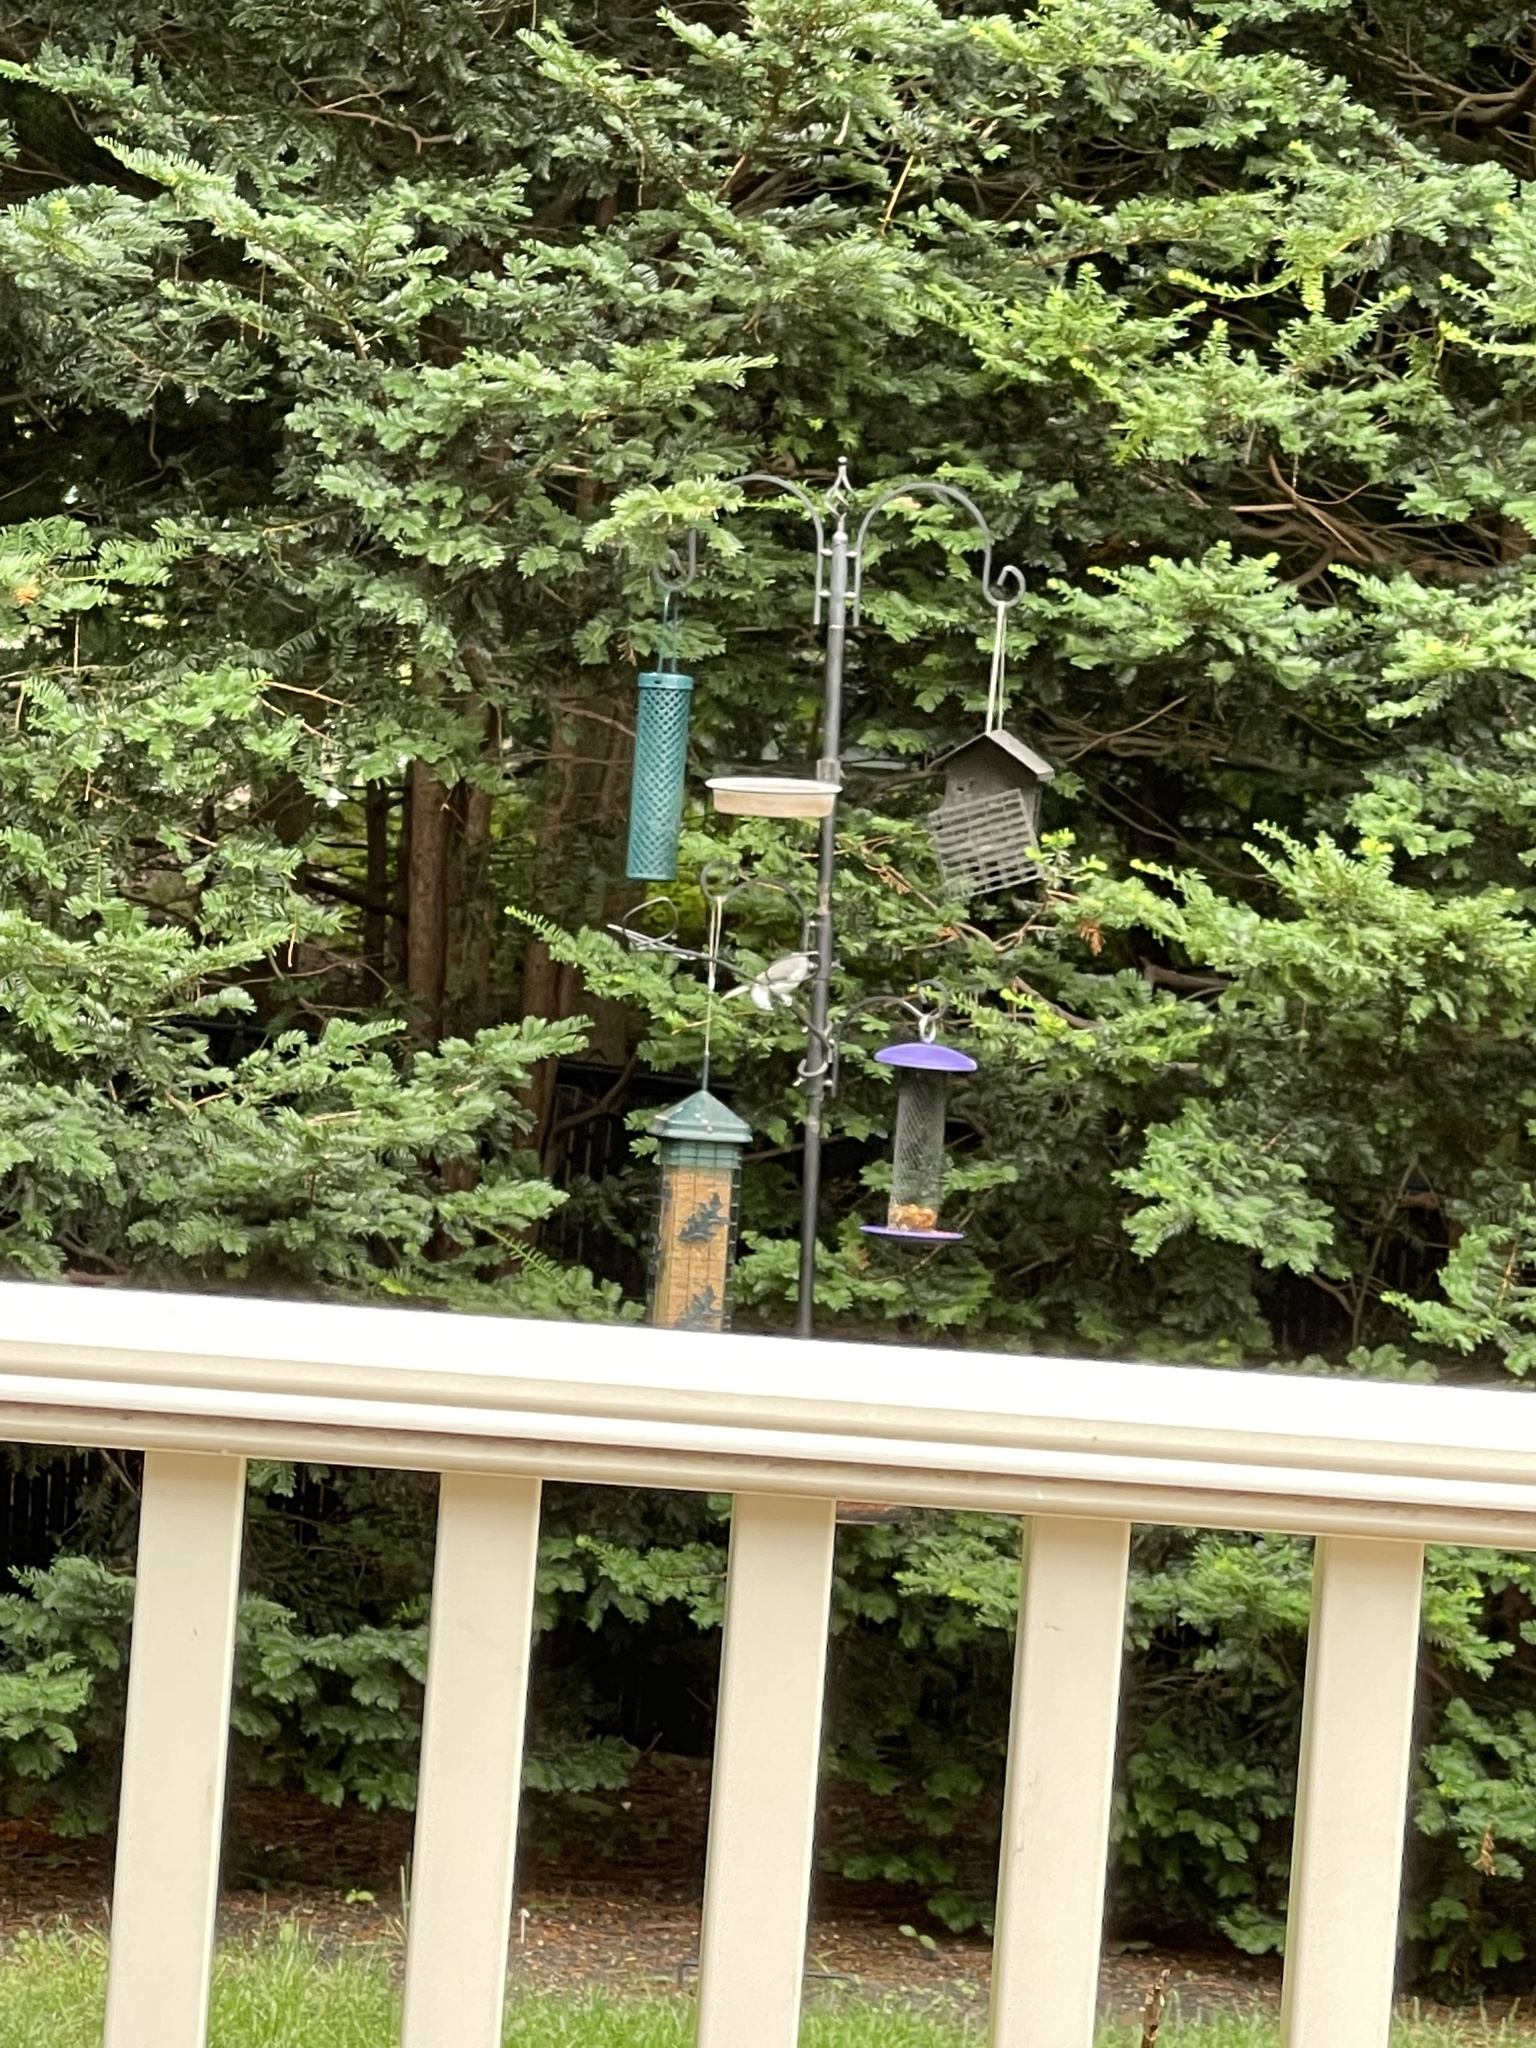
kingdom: Animalia
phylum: Chordata
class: Aves
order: Passeriformes
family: Paridae
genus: Poecile
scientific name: Poecile atricapillus
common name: Black-capped chickadee
